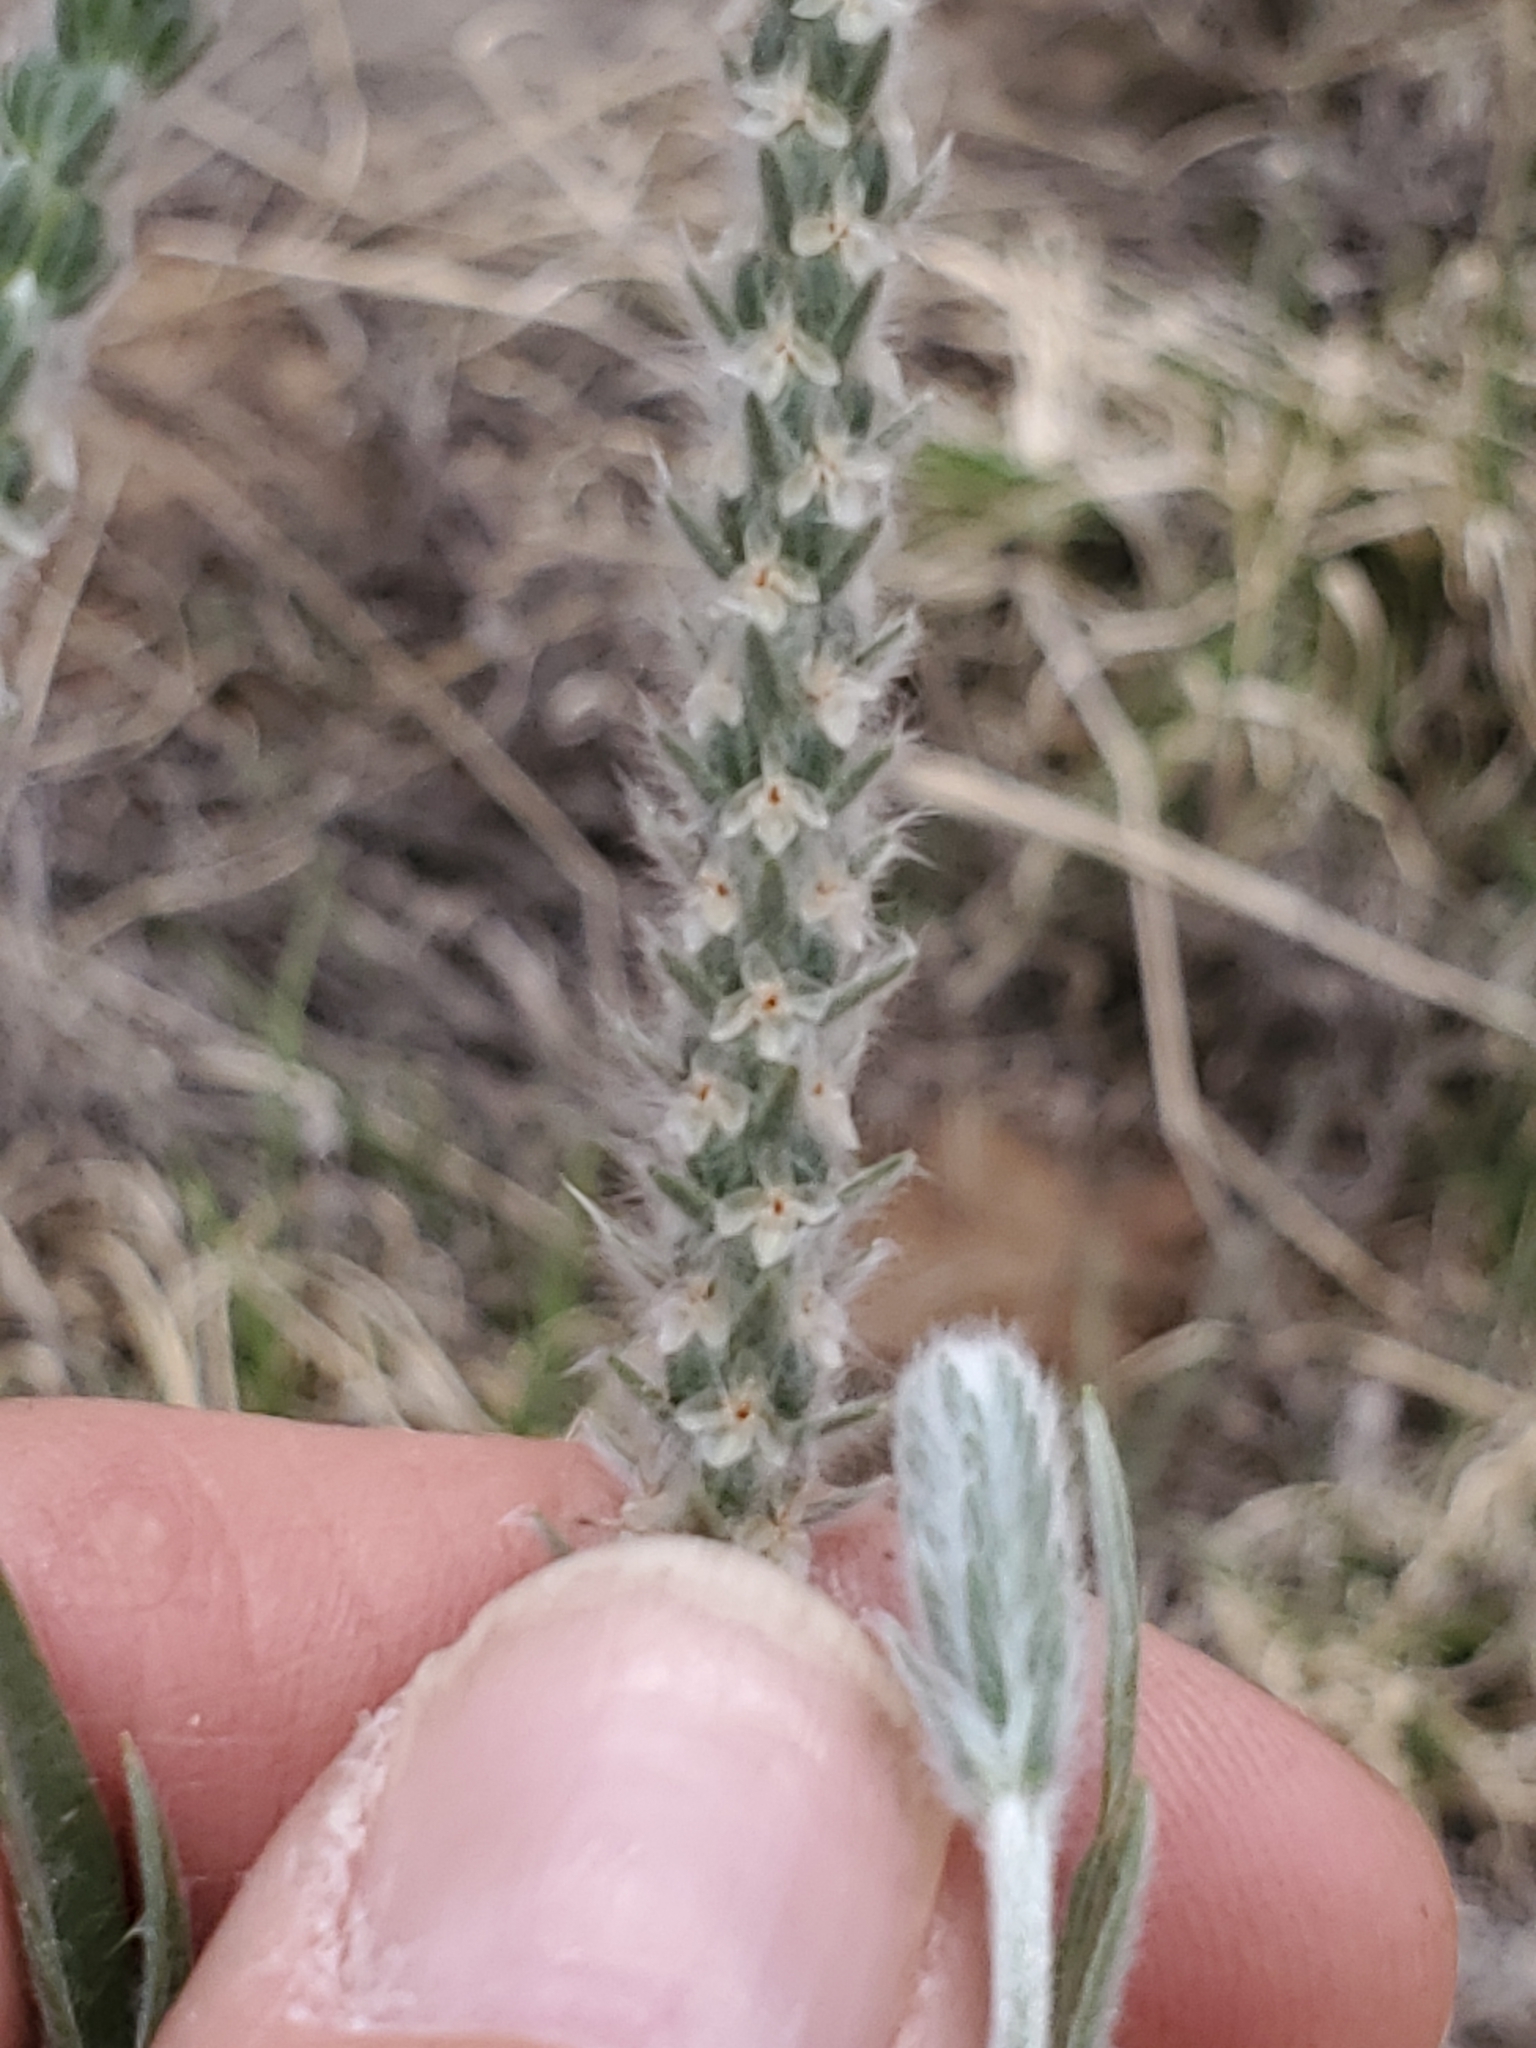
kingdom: Plantae
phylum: Tracheophyta
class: Magnoliopsida
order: Lamiales
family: Plantaginaceae
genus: Plantago
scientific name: Plantago patagonica
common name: Patagonia indian-wheat
